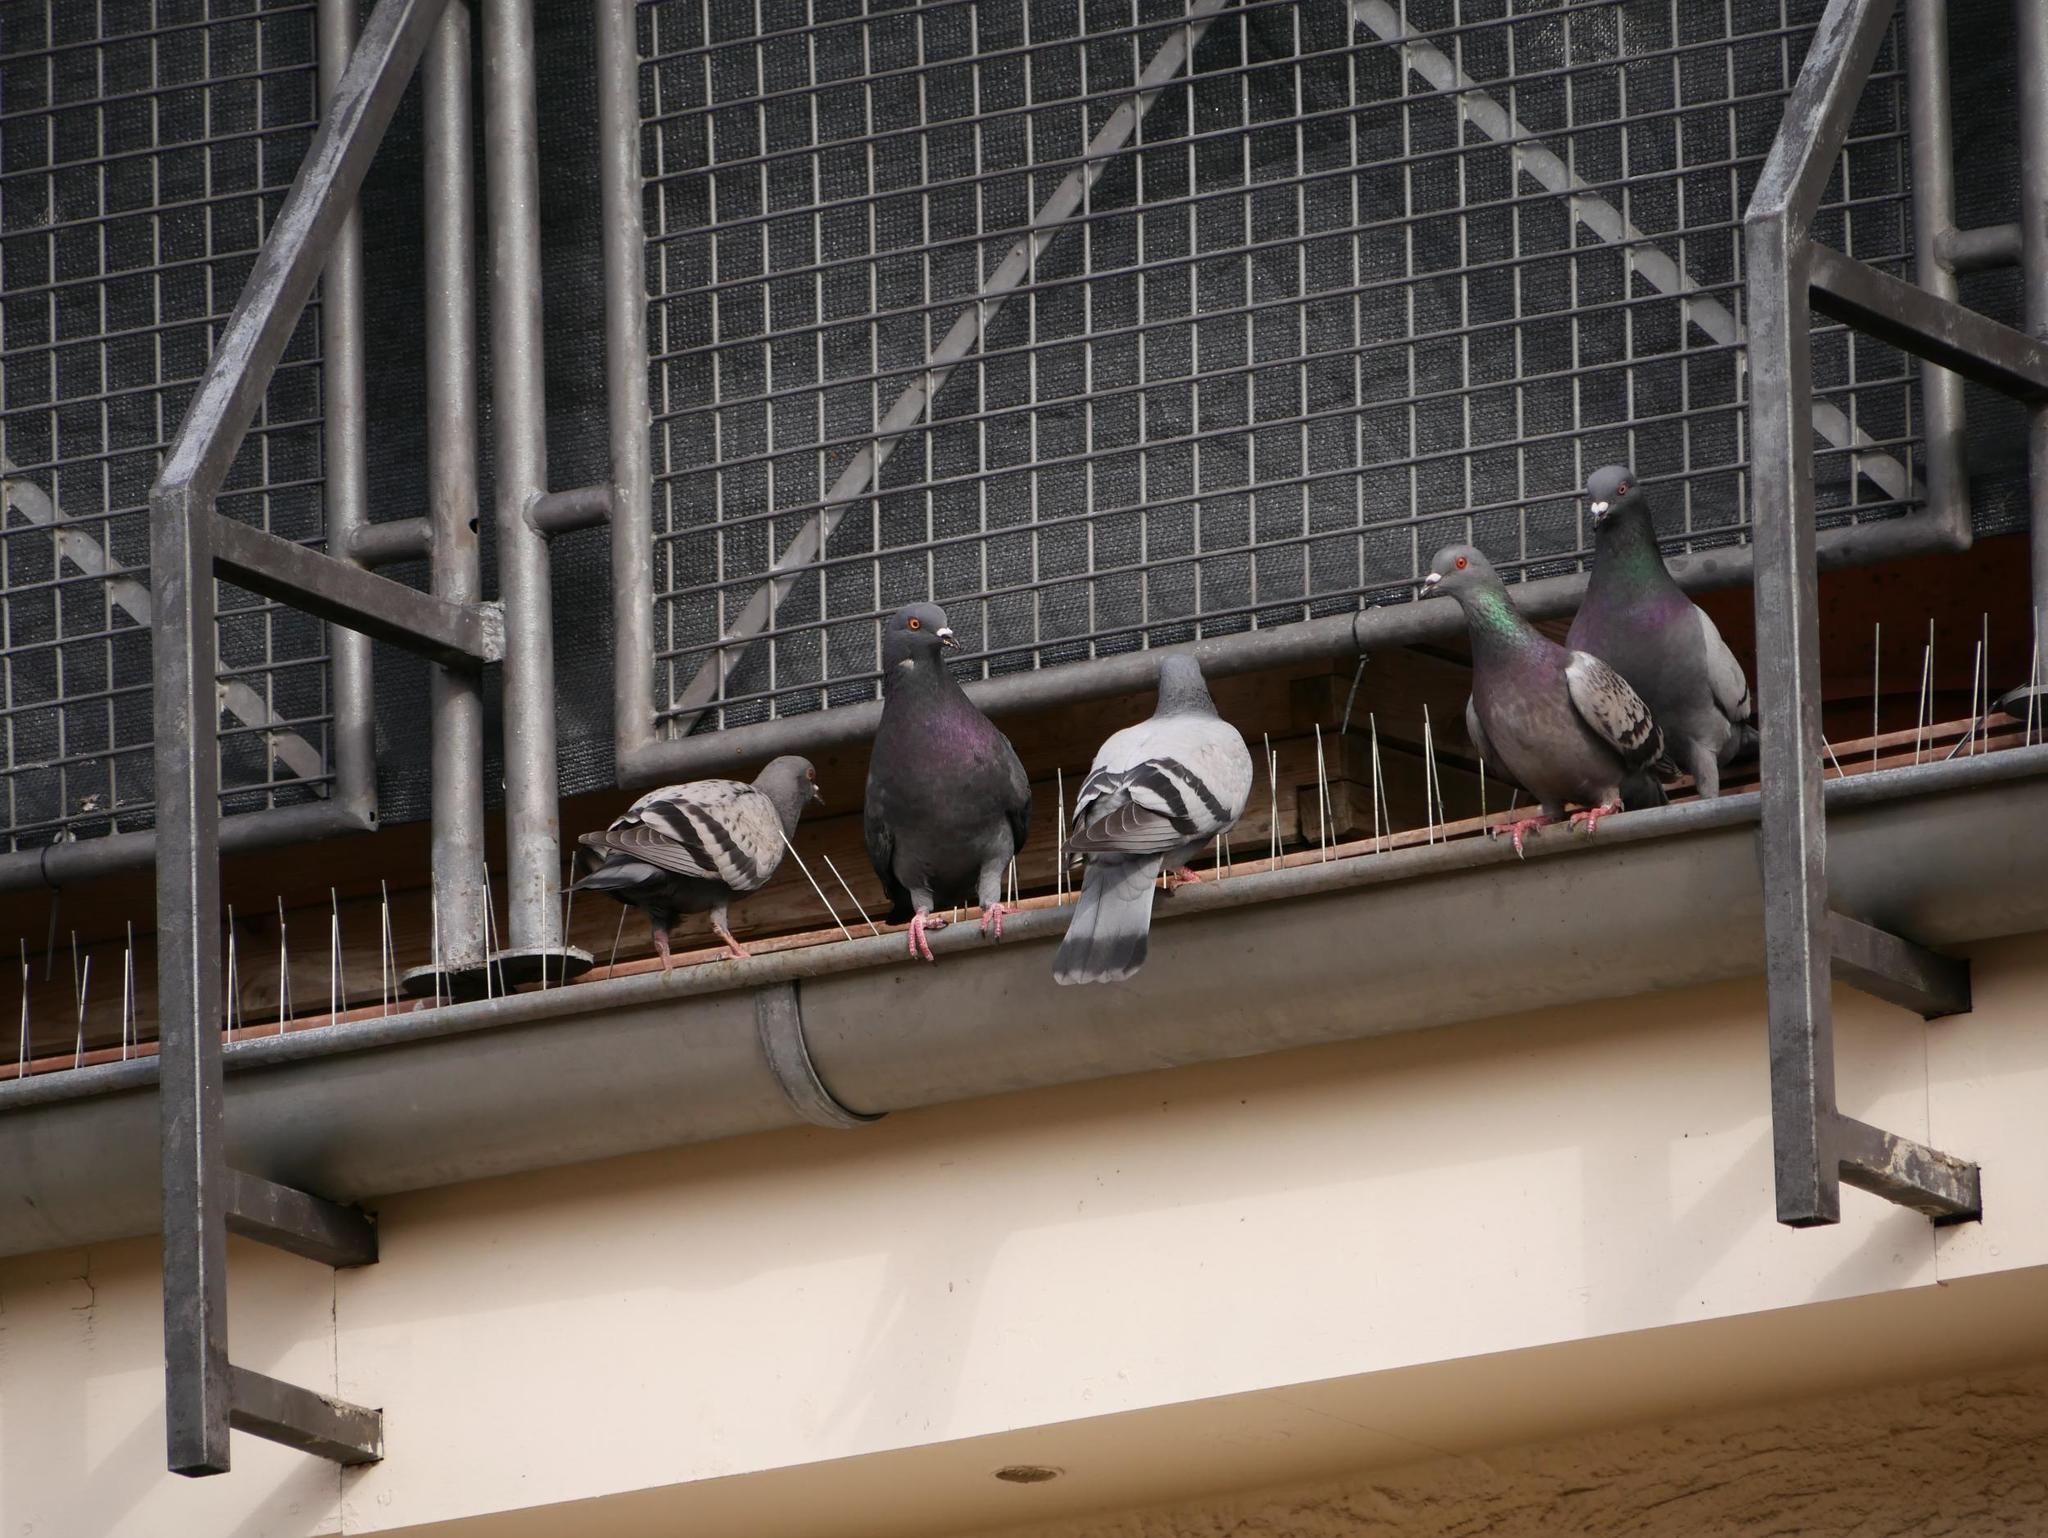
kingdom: Animalia
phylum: Chordata
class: Aves
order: Columbiformes
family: Columbidae
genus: Columba
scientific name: Columba livia
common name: Rock pigeon
